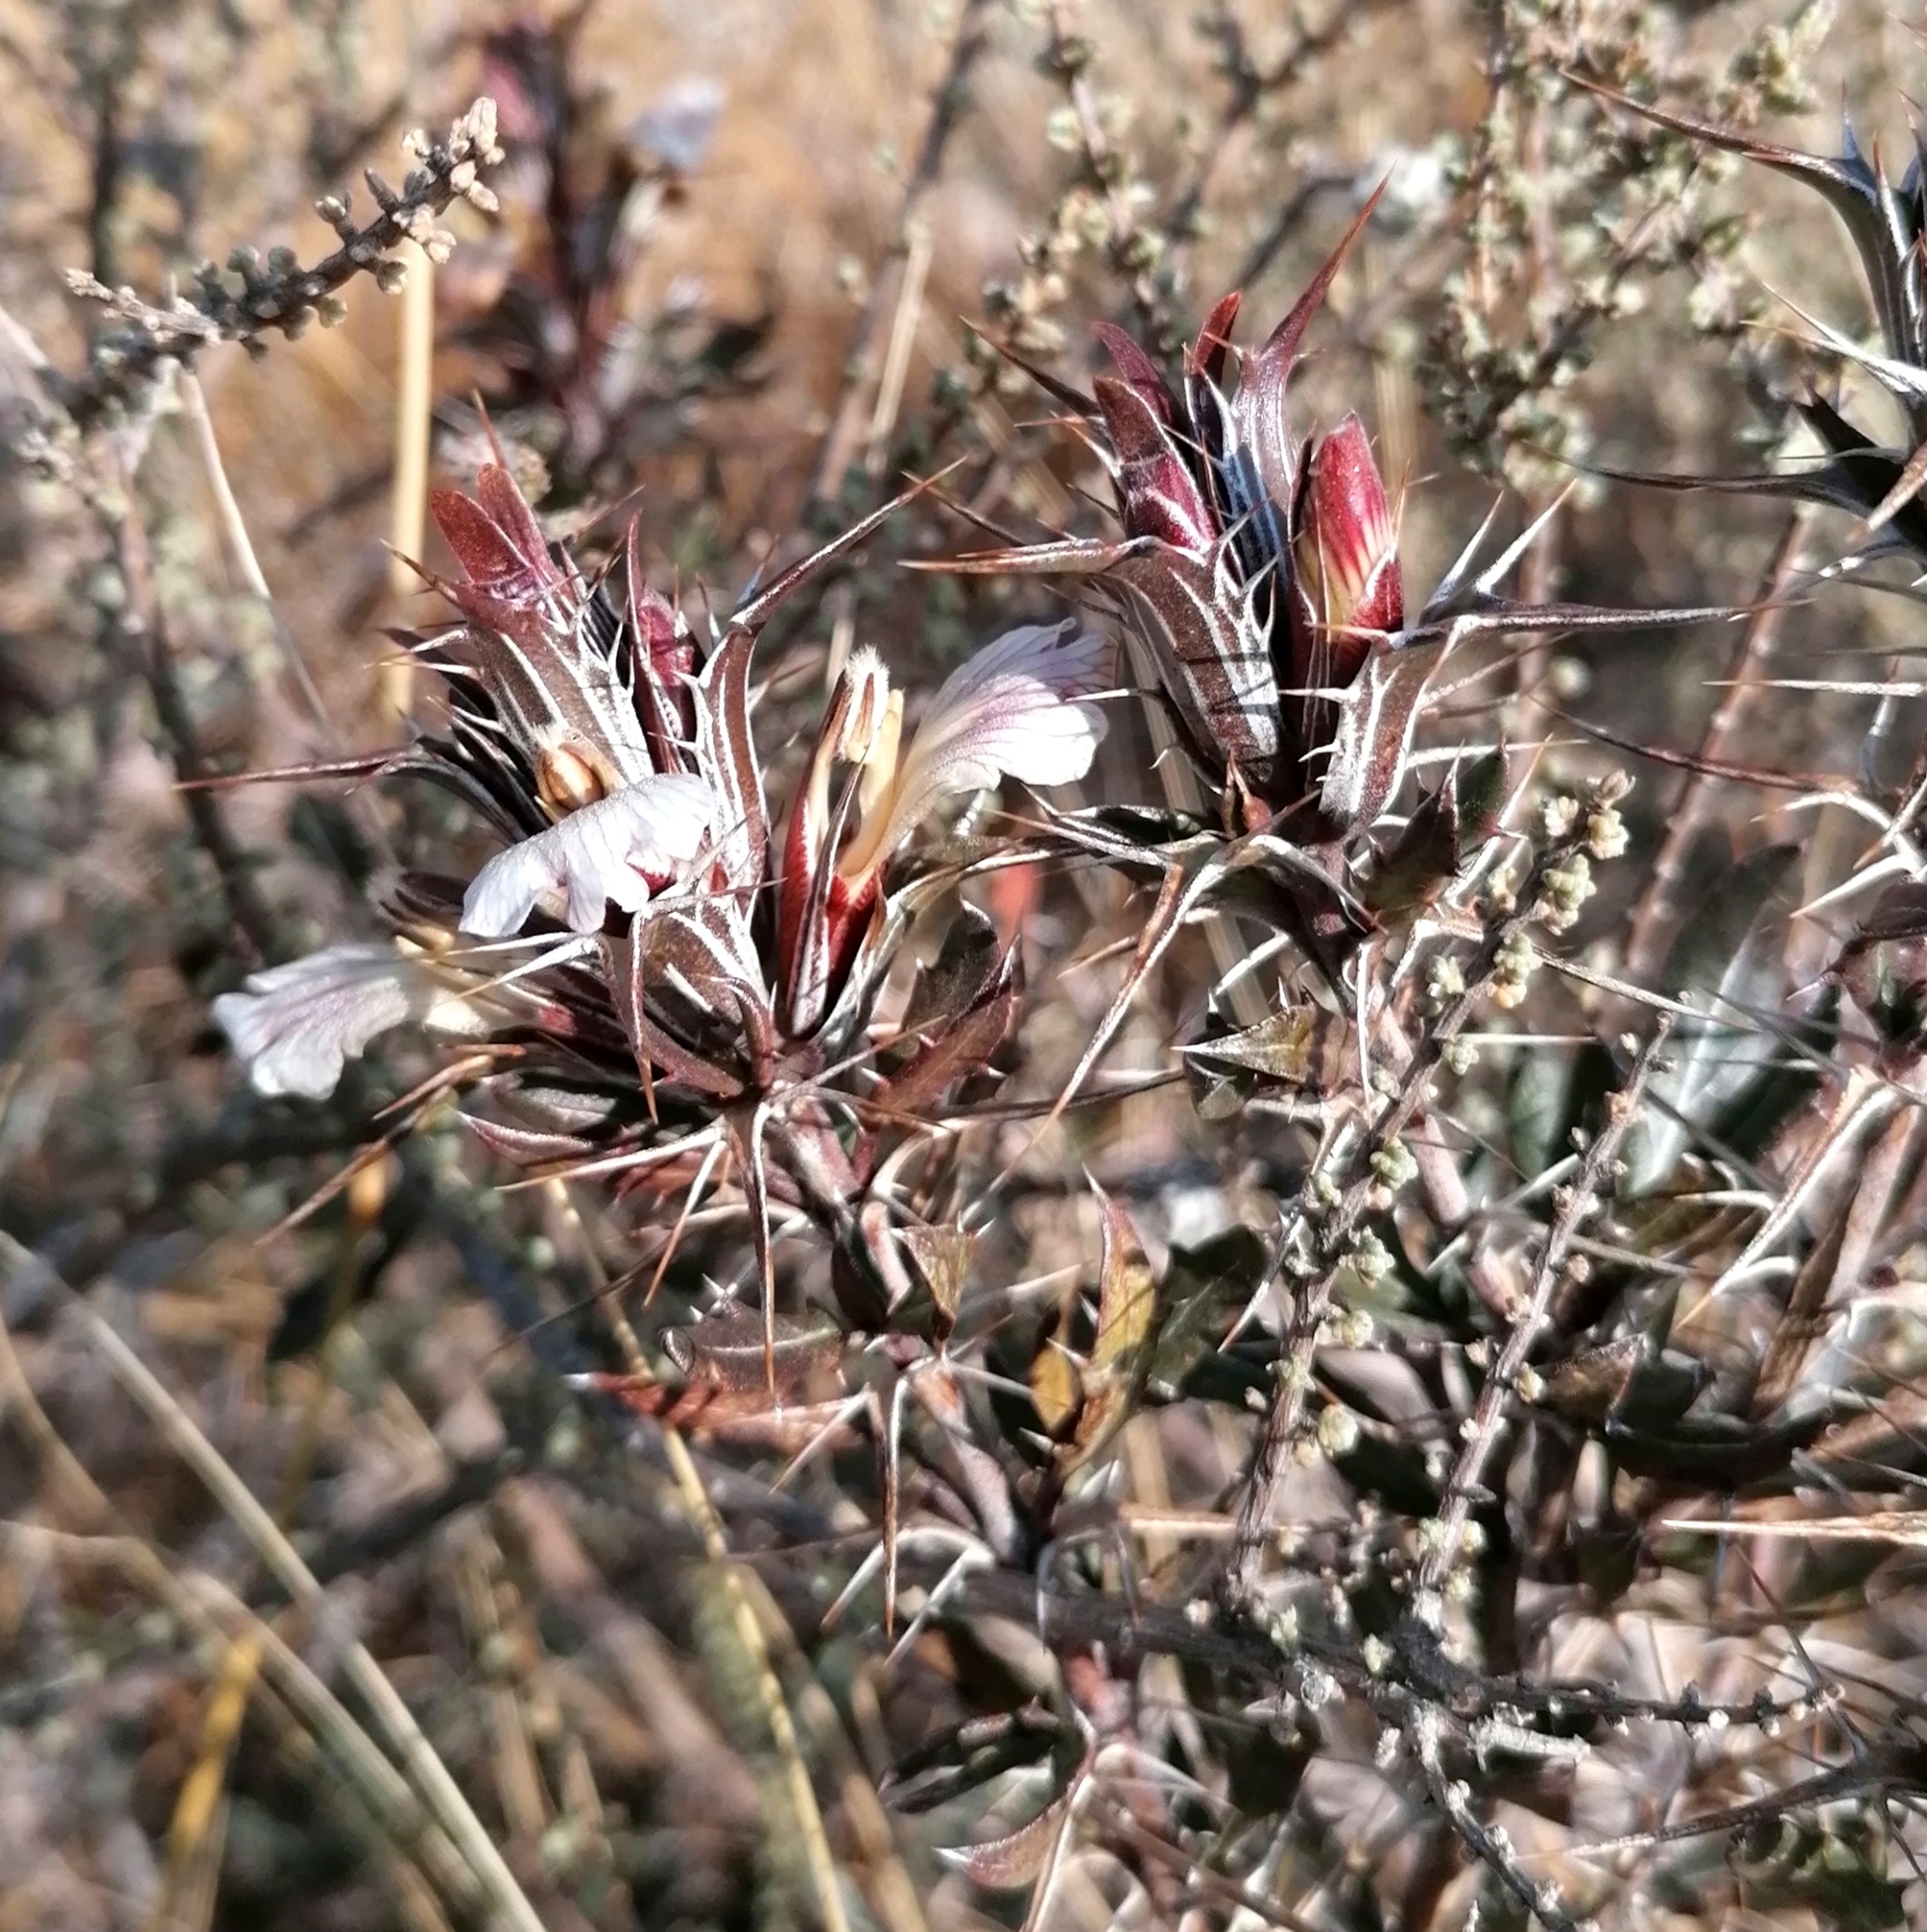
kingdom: Plantae
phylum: Tracheophyta
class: Magnoliopsida
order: Lamiales
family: Acanthaceae
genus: Blepharis
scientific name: Blepharis capensis
